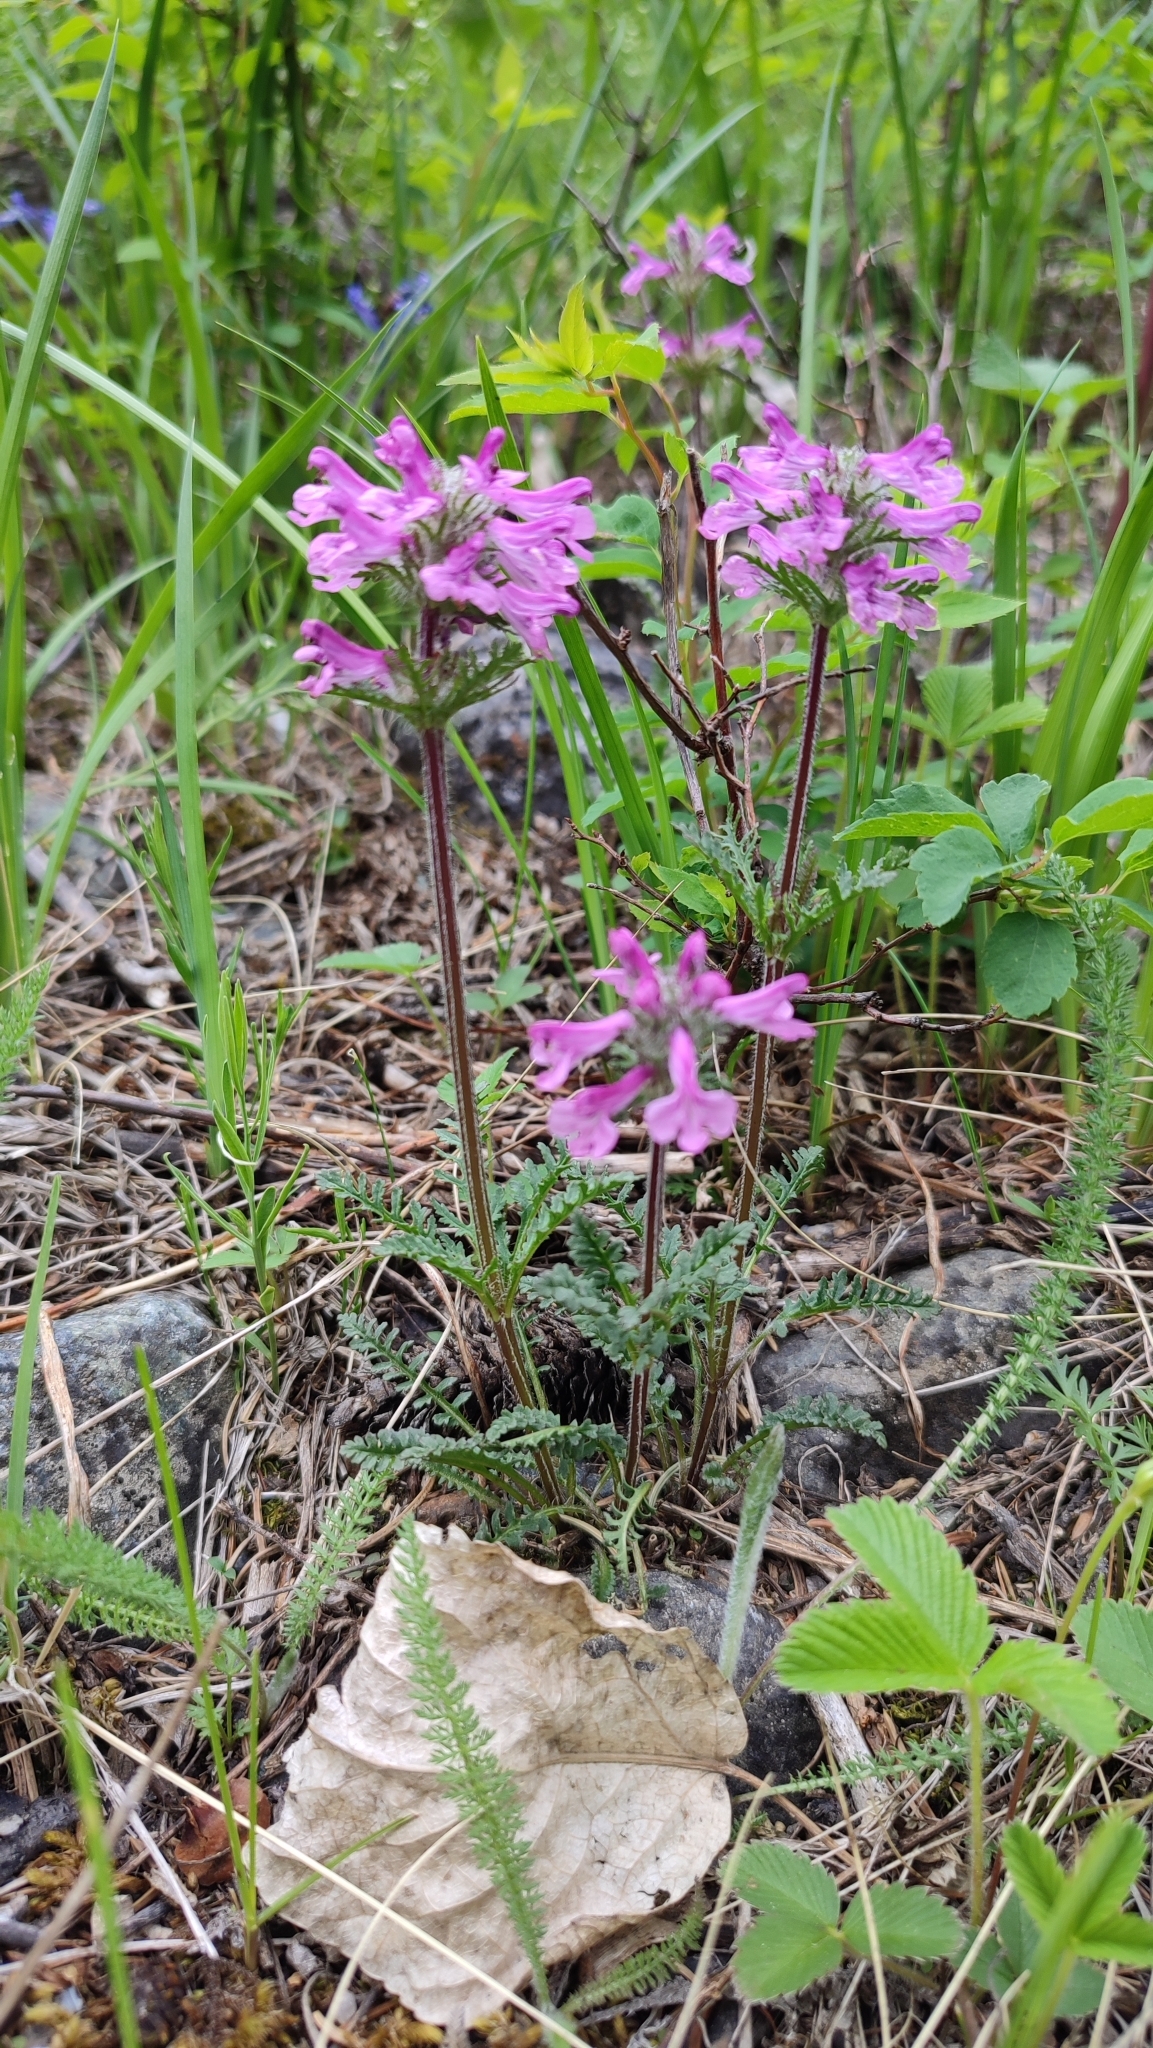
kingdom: Plantae
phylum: Tracheophyta
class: Magnoliopsida
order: Lamiales
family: Orobanchaceae
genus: Pedicularis
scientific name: Pedicularis anthemifolia
